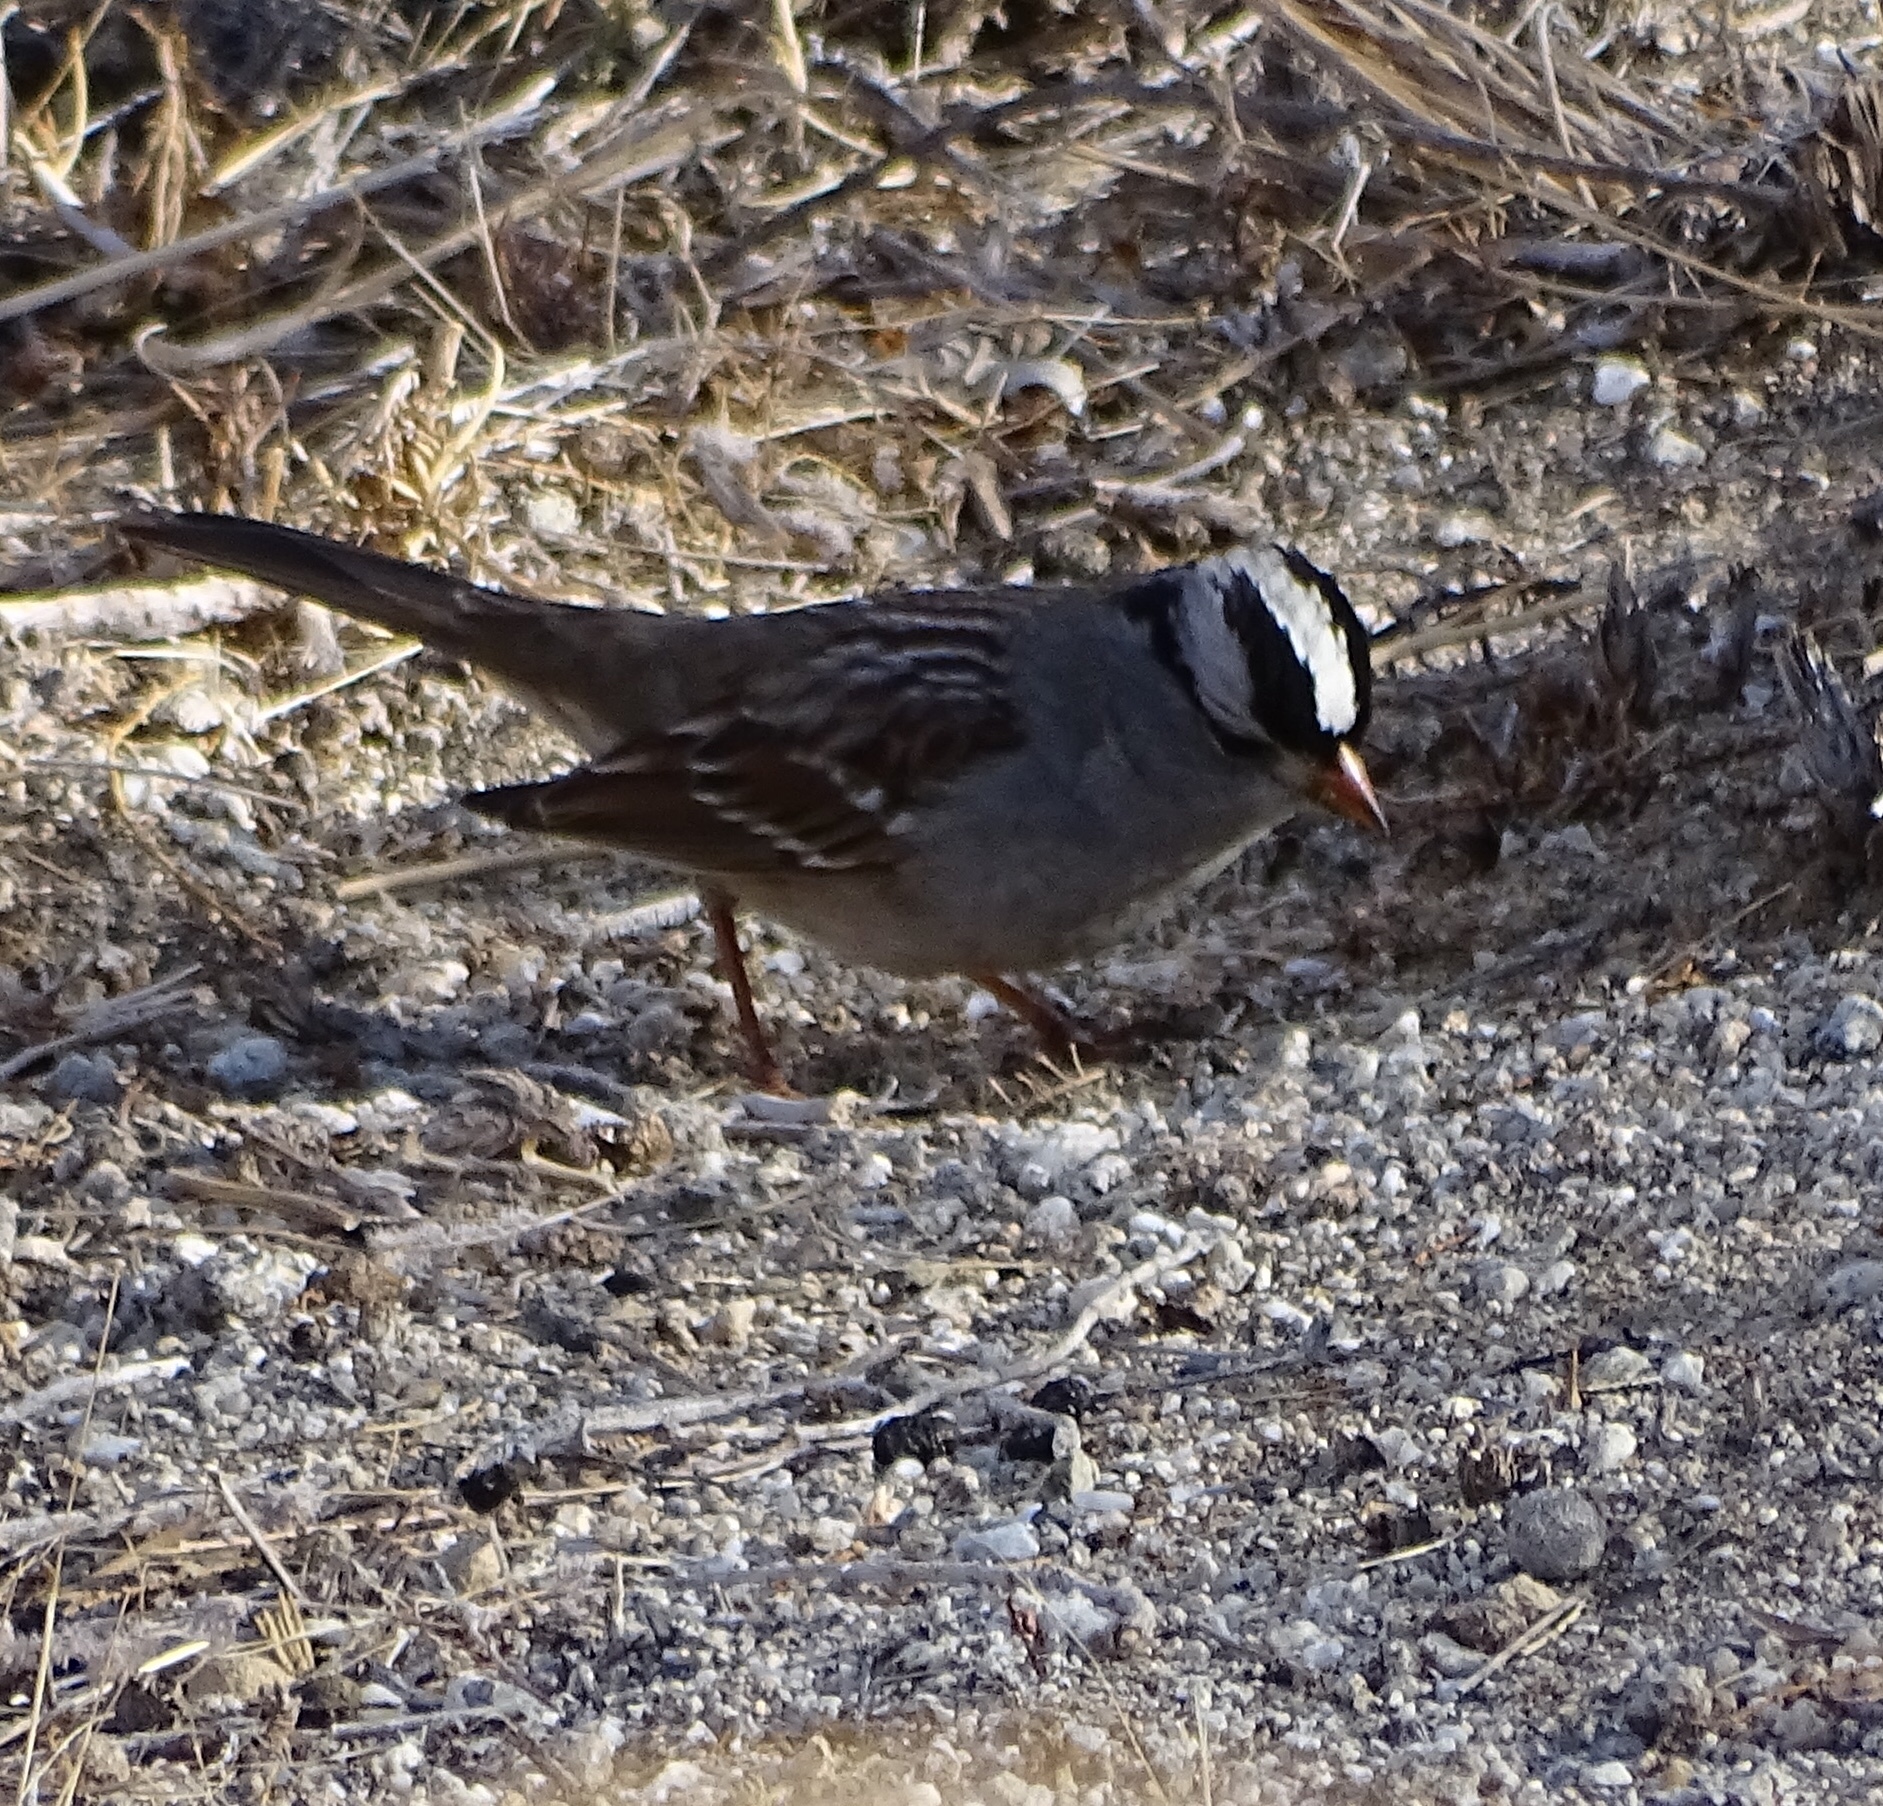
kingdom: Animalia
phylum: Chordata
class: Aves
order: Passeriformes
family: Passerellidae
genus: Zonotrichia
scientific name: Zonotrichia leucophrys
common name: White-crowned sparrow
